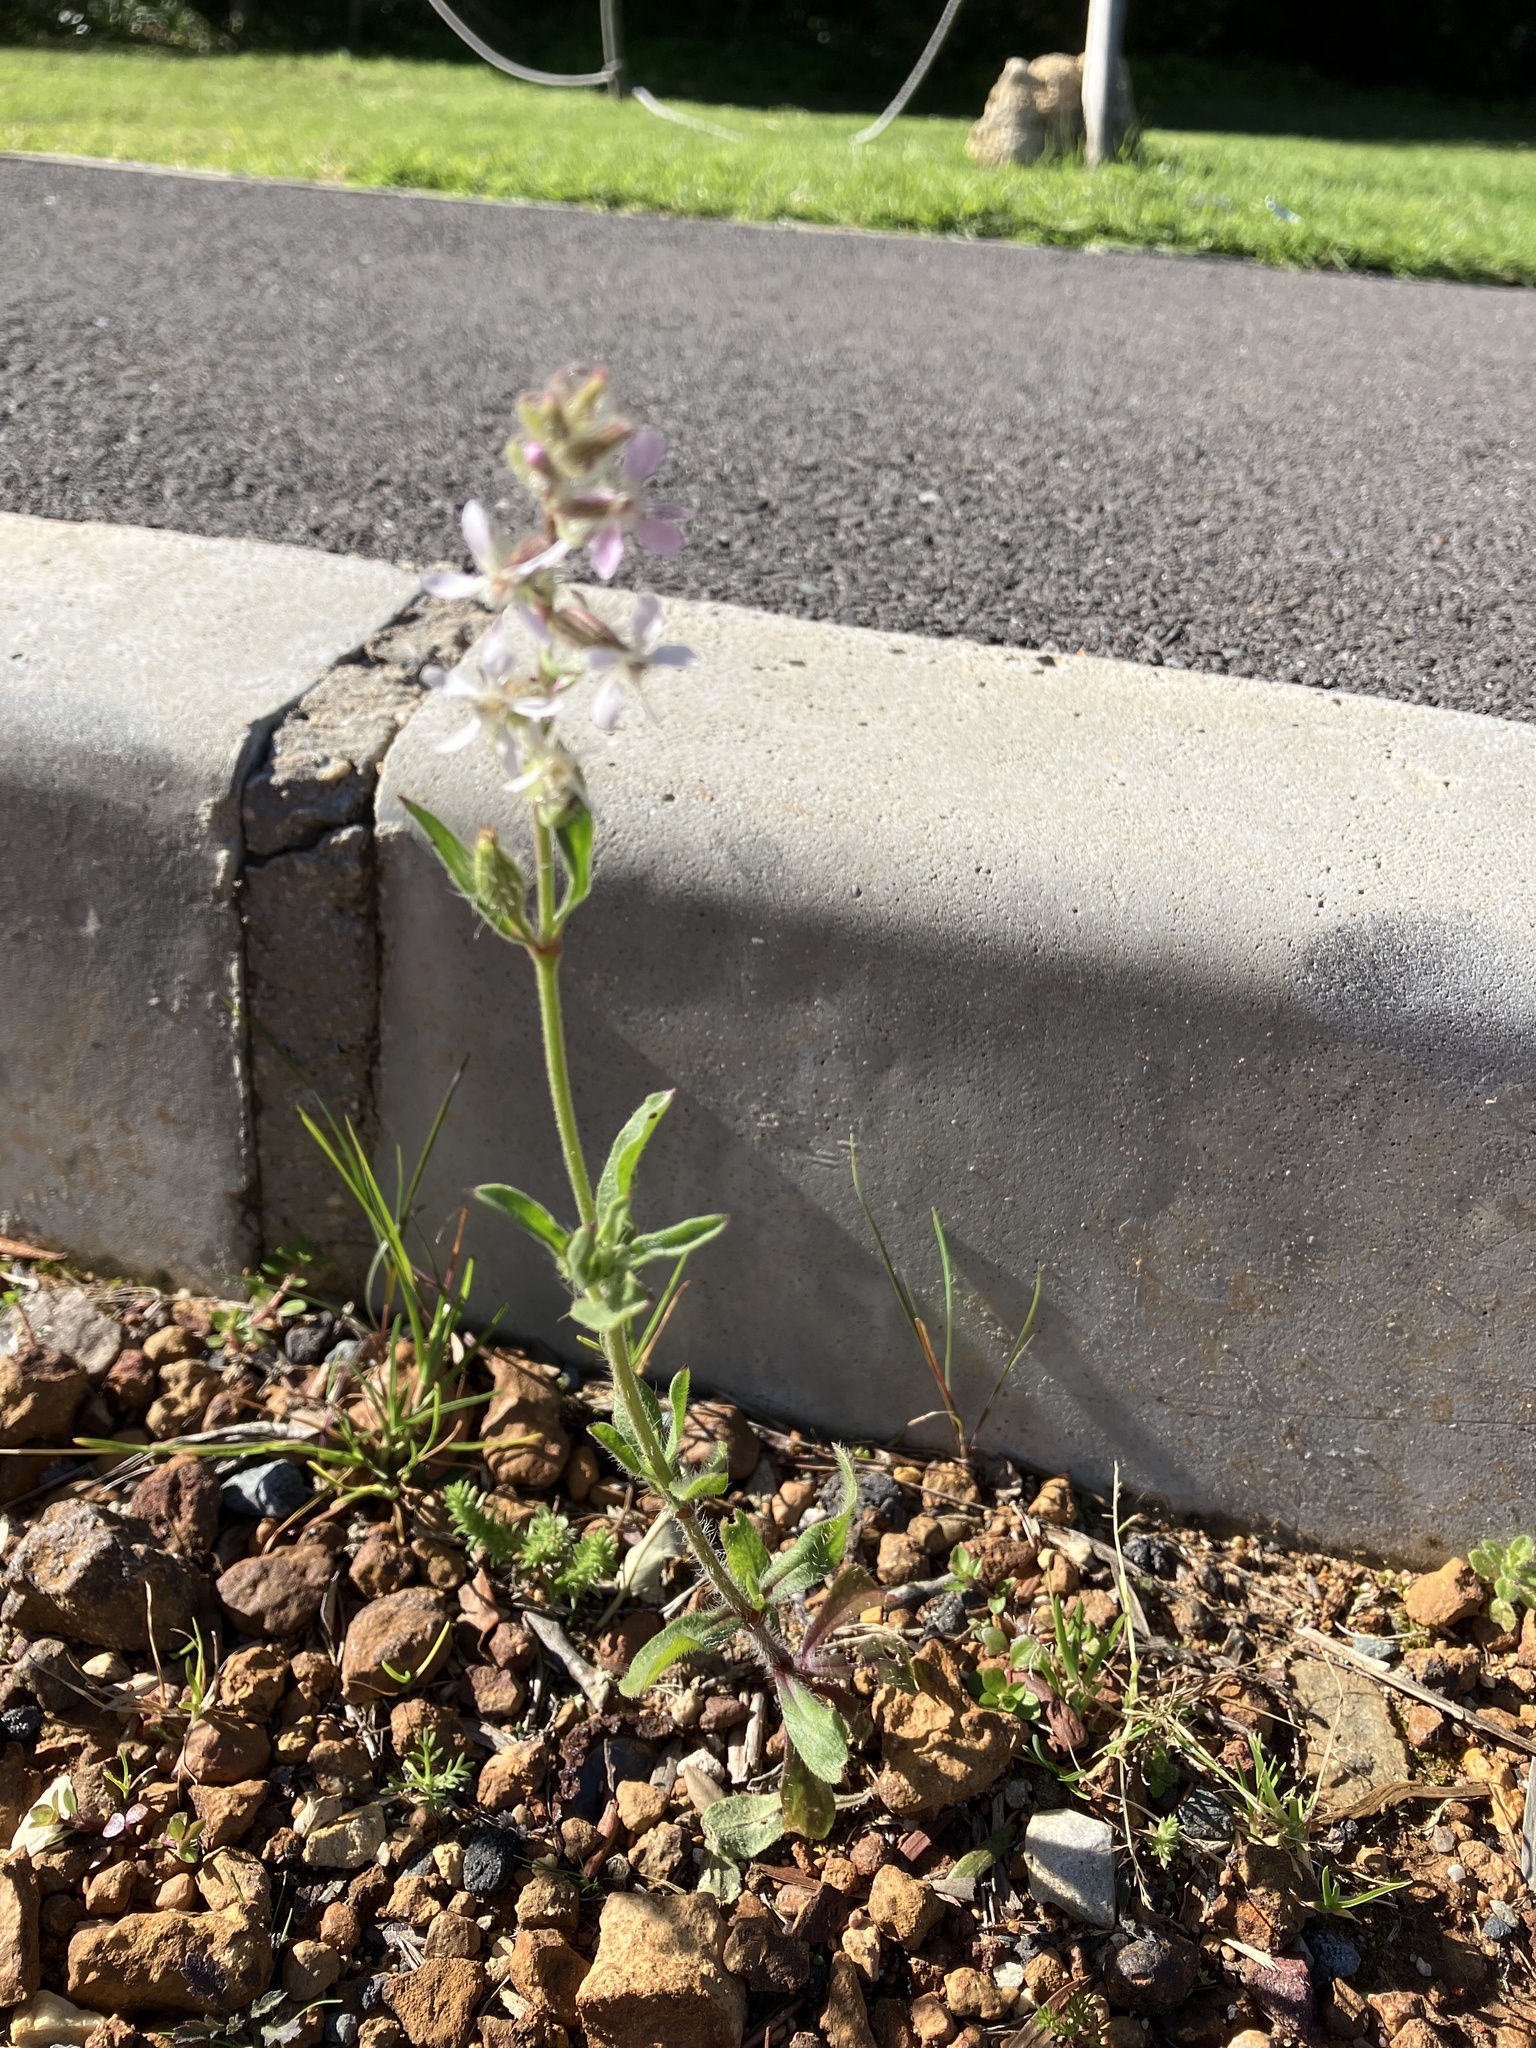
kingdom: Plantae
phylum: Tracheophyta
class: Magnoliopsida
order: Caryophyllales
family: Caryophyllaceae
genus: Silene
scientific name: Silene gallica
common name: Small-flowered catchfly
